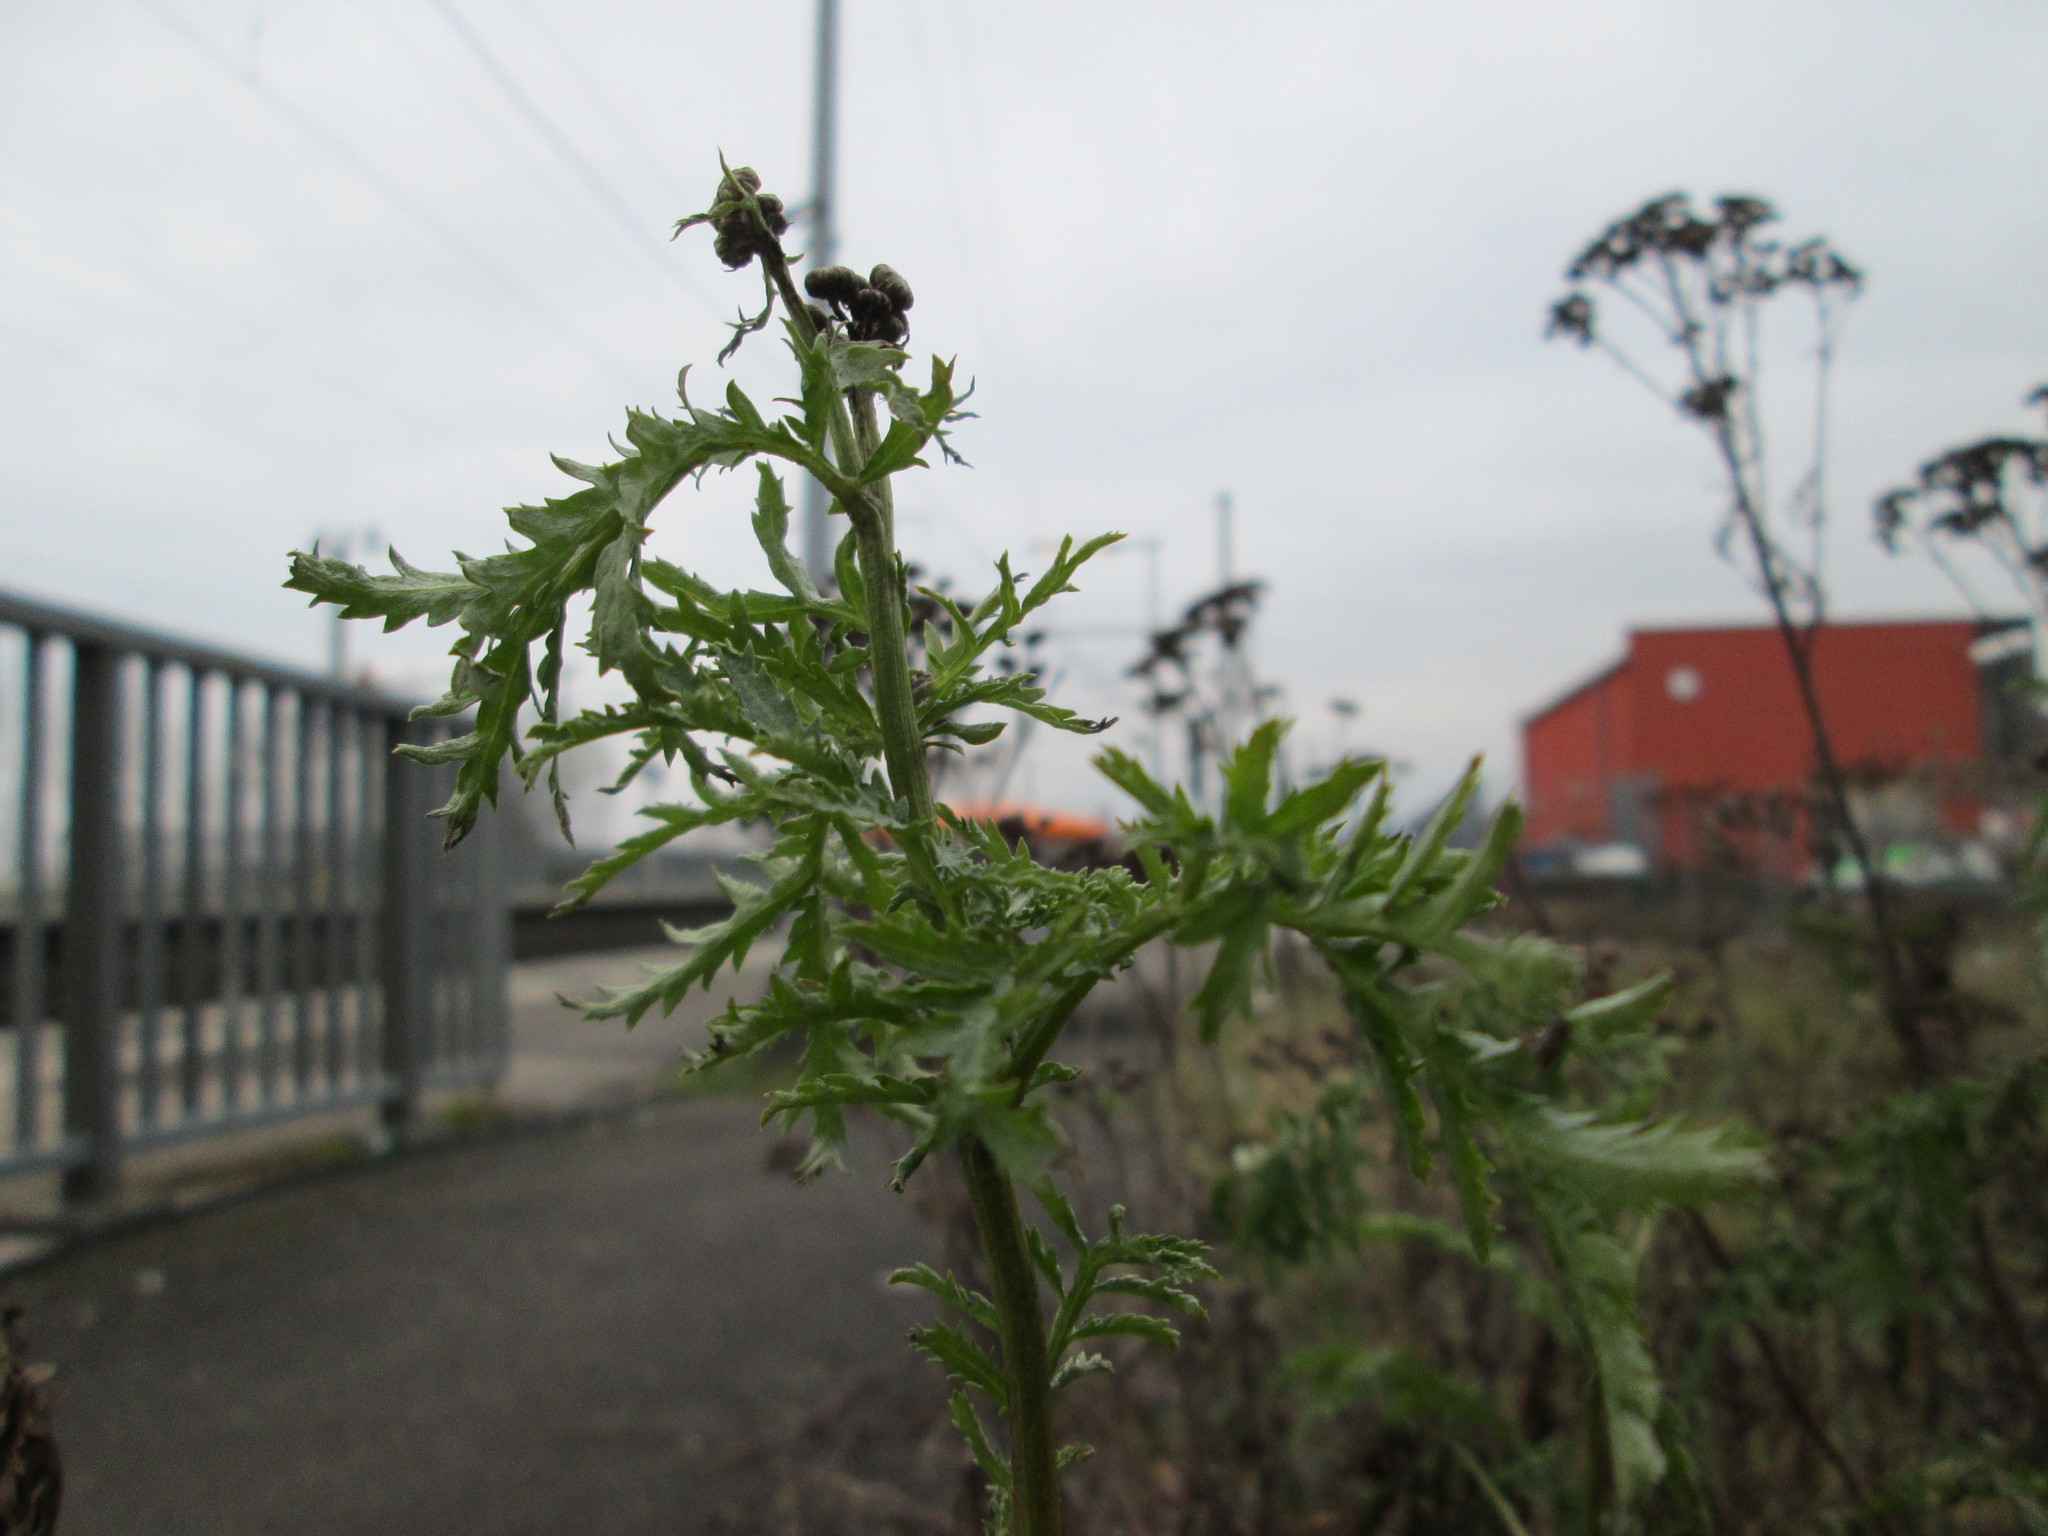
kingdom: Plantae
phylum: Tracheophyta
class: Magnoliopsida
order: Asterales
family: Asteraceae
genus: Tanacetum
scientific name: Tanacetum vulgare
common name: Common tansy
